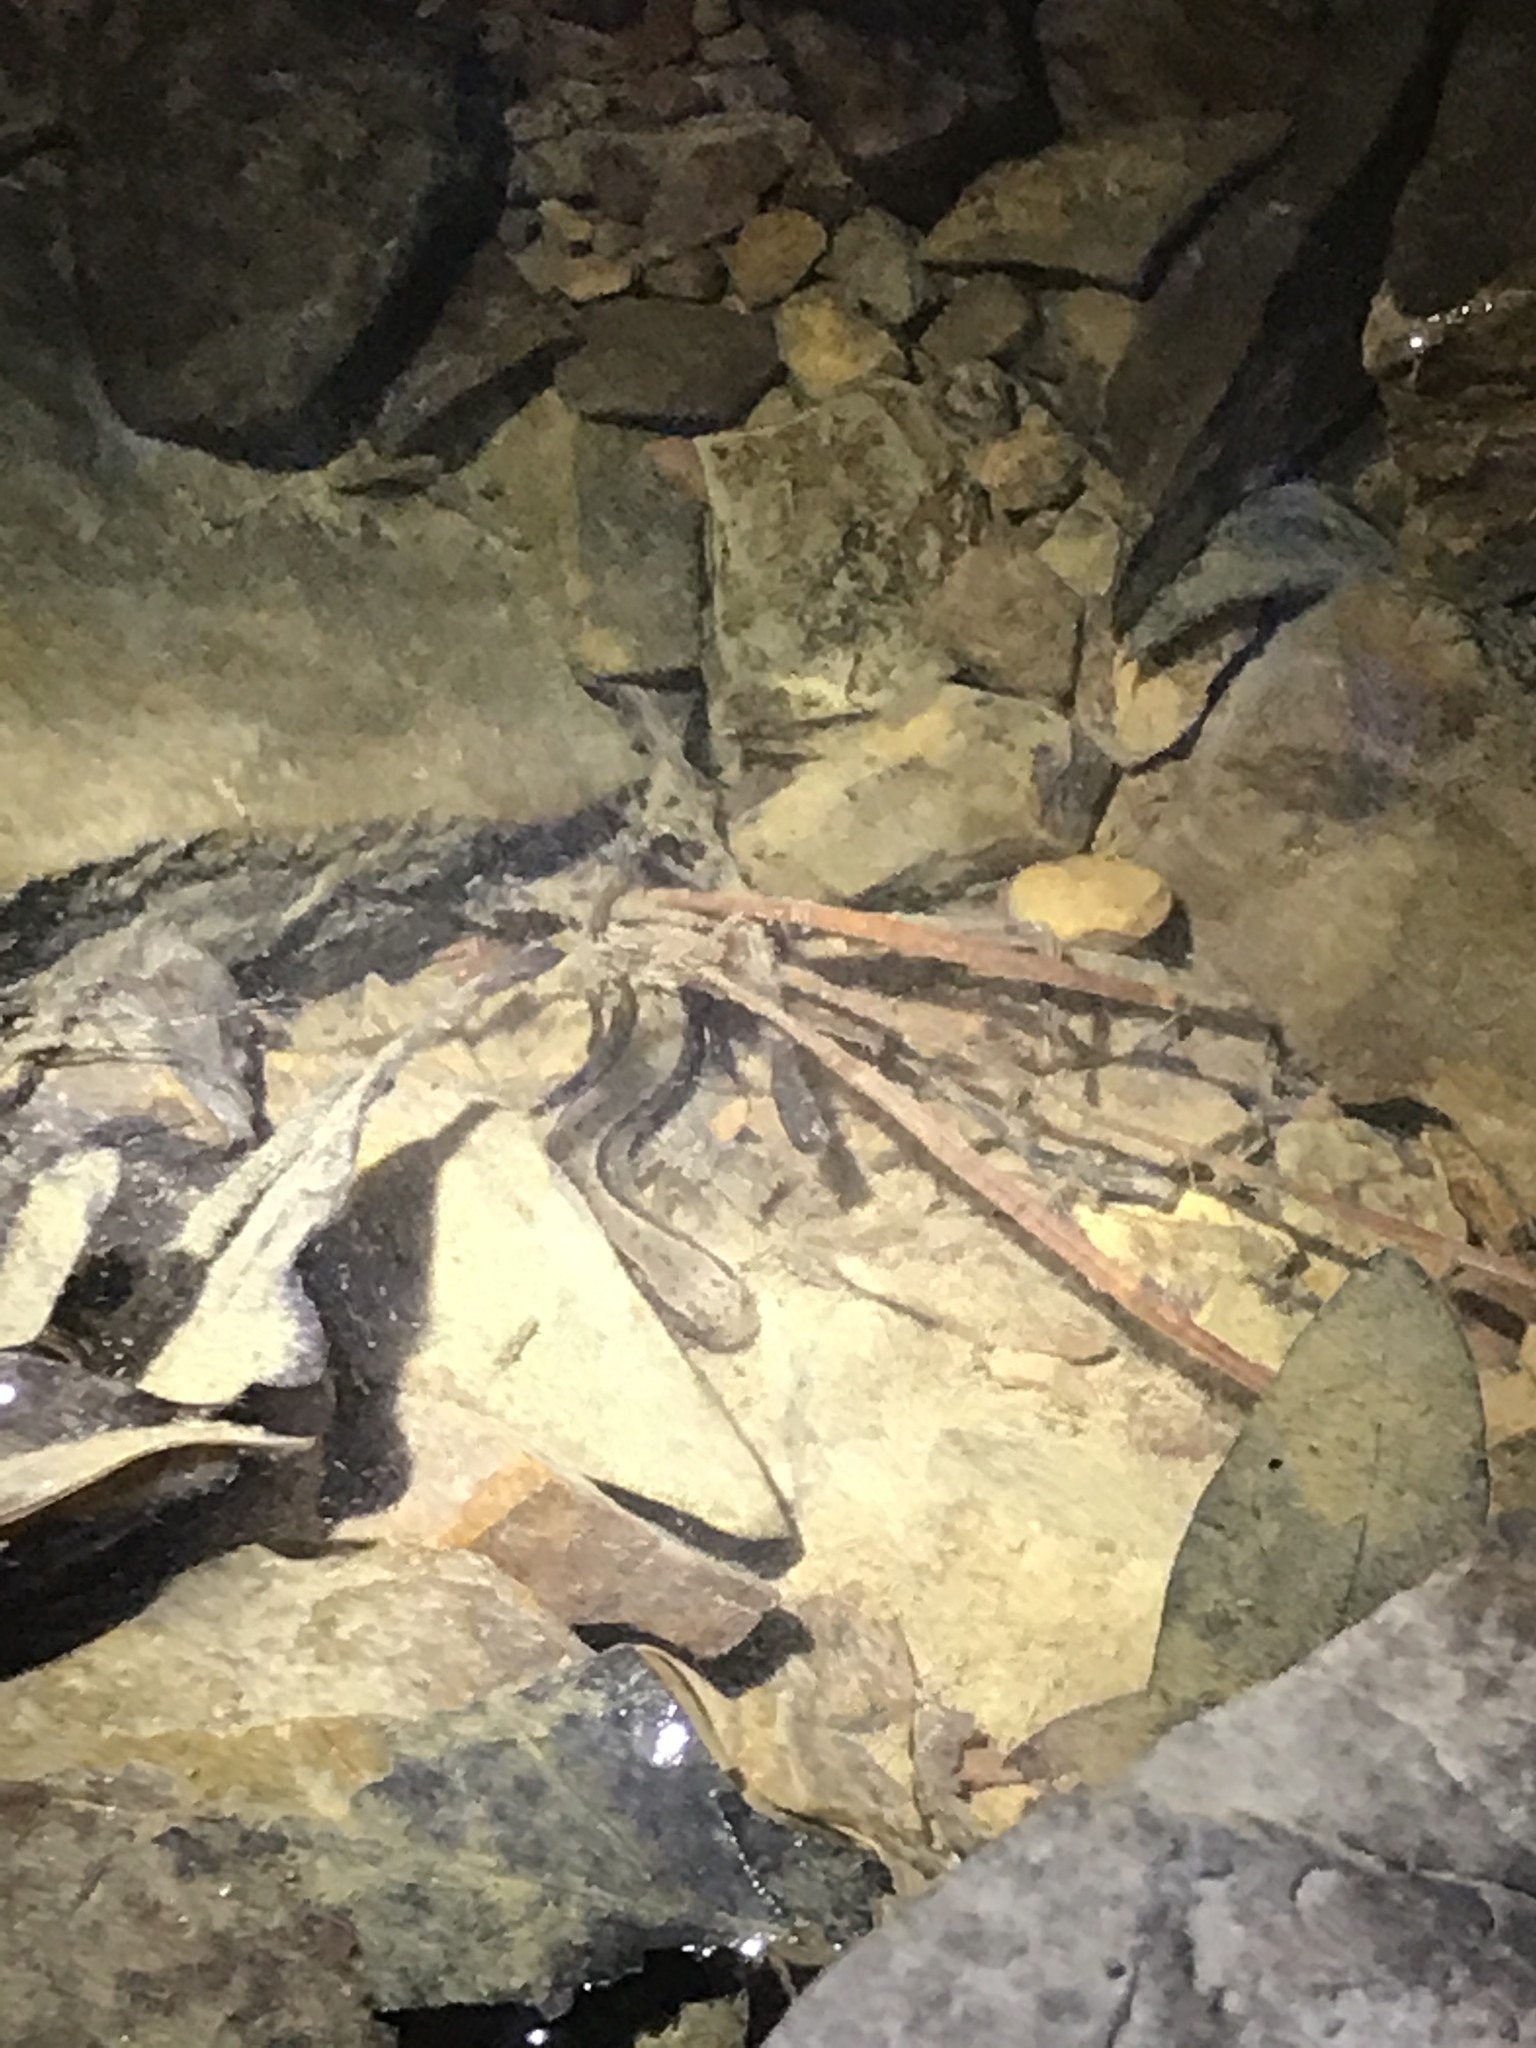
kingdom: Animalia
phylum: Chordata
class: Amphibia
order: Caudata
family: Plethodontidae
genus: Eurycea
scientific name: Eurycea cirrigera
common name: Southern two-lined salamander
